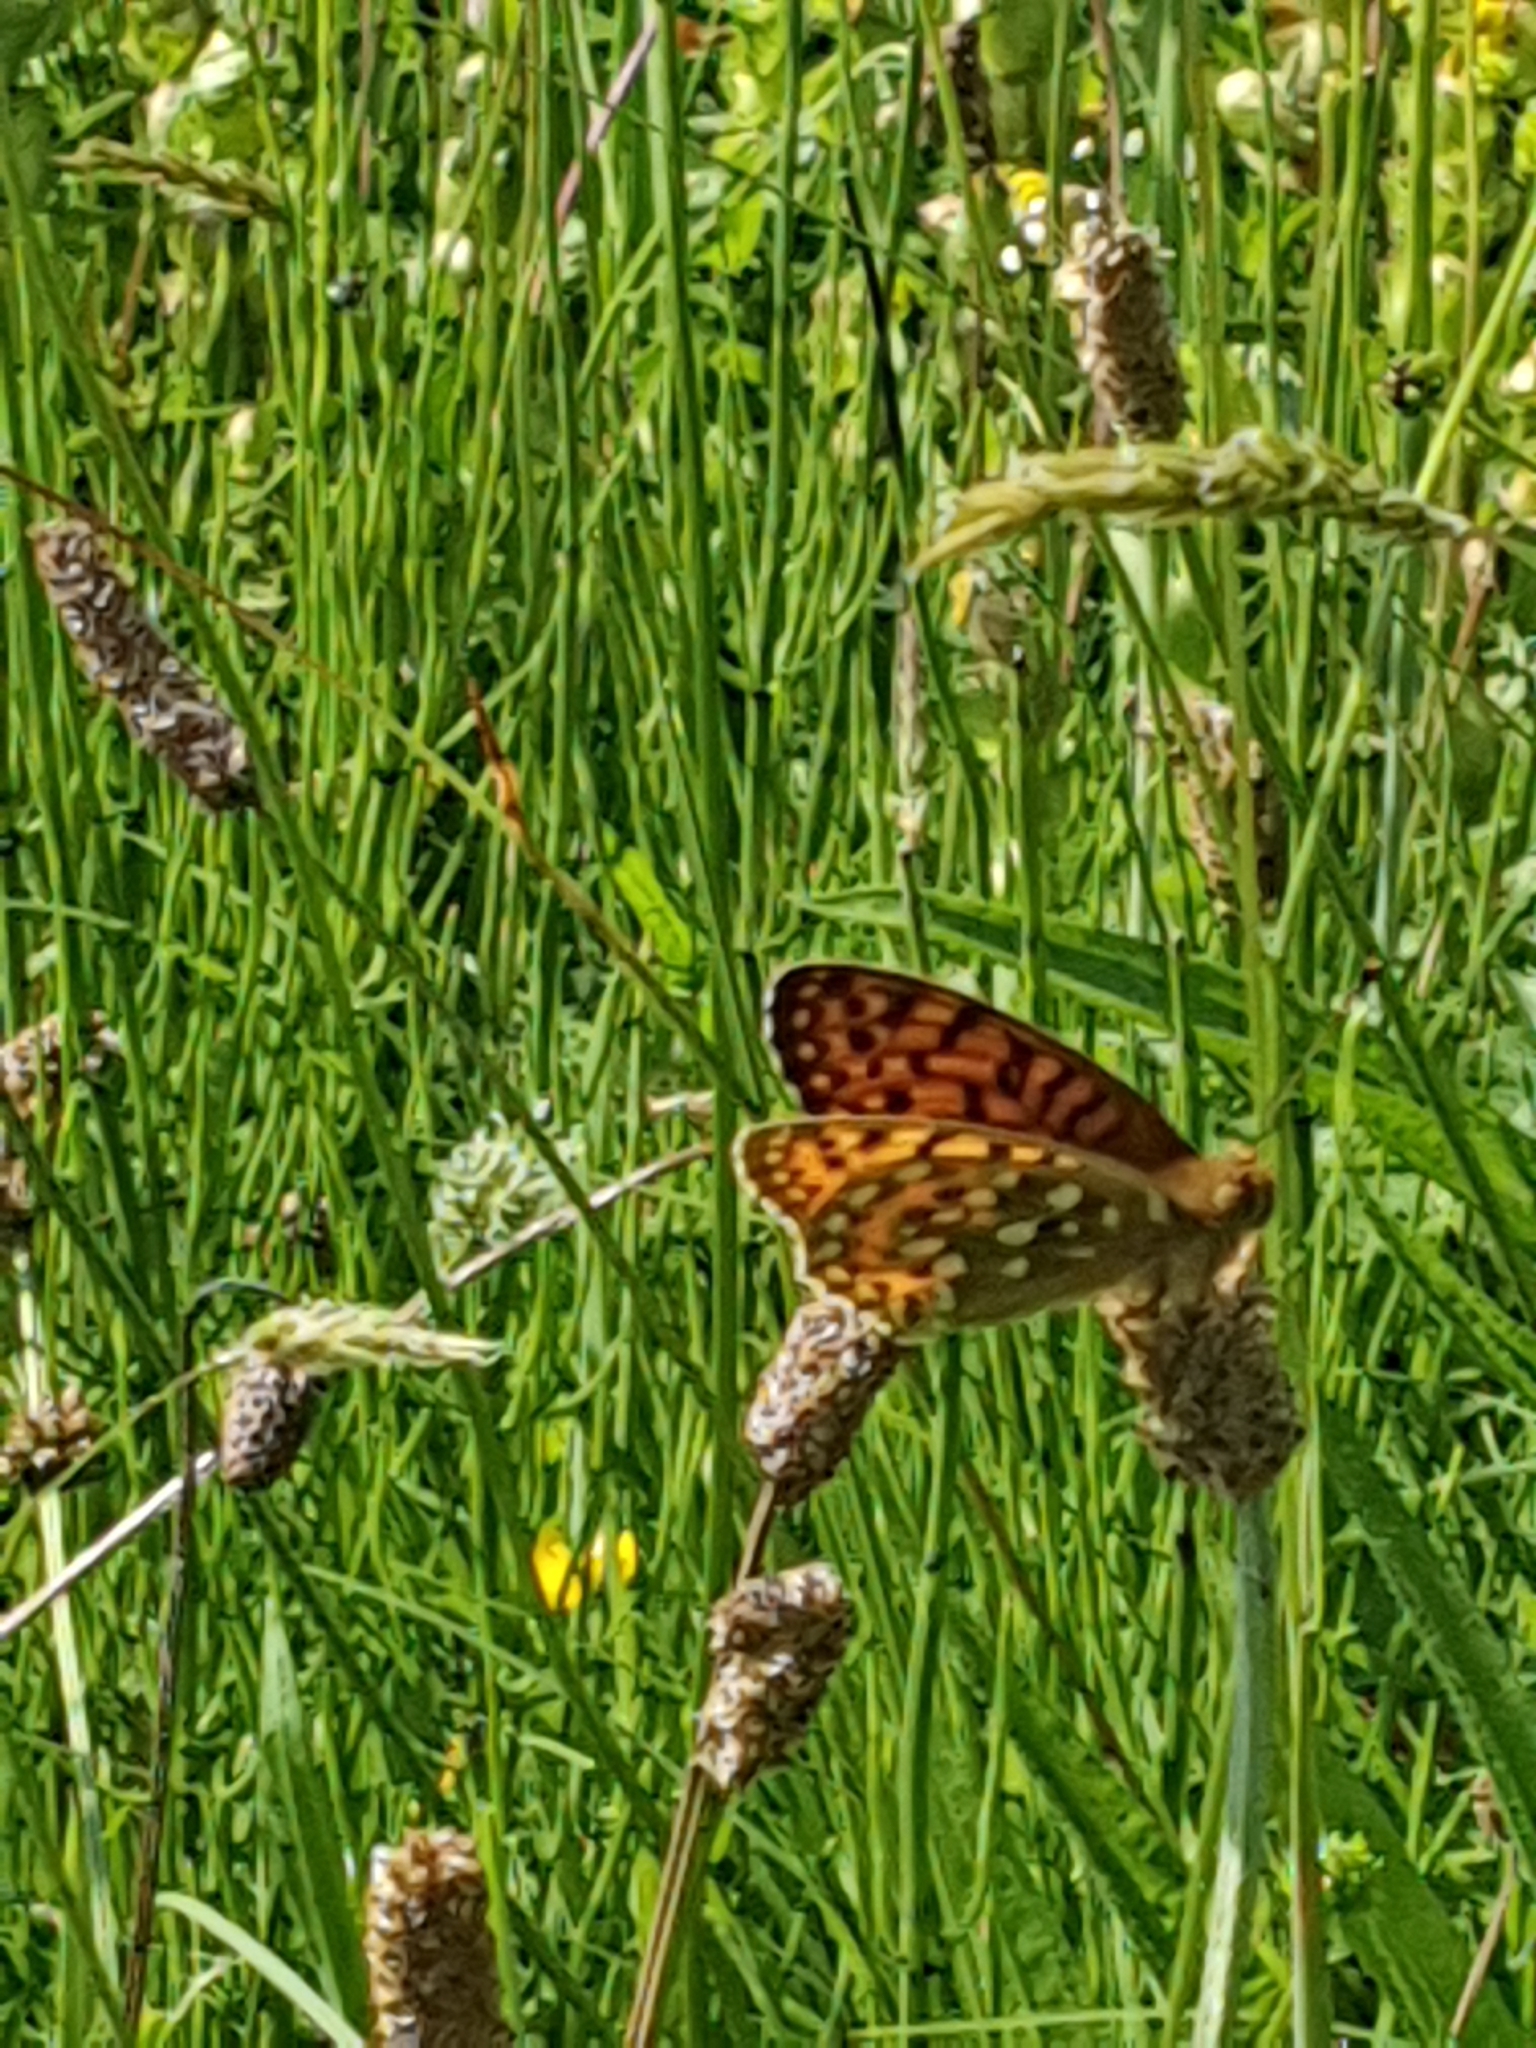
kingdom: Animalia
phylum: Arthropoda
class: Insecta
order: Lepidoptera
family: Nymphalidae
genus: Speyeria
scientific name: Speyeria aglaja
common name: Dark green fritillary
